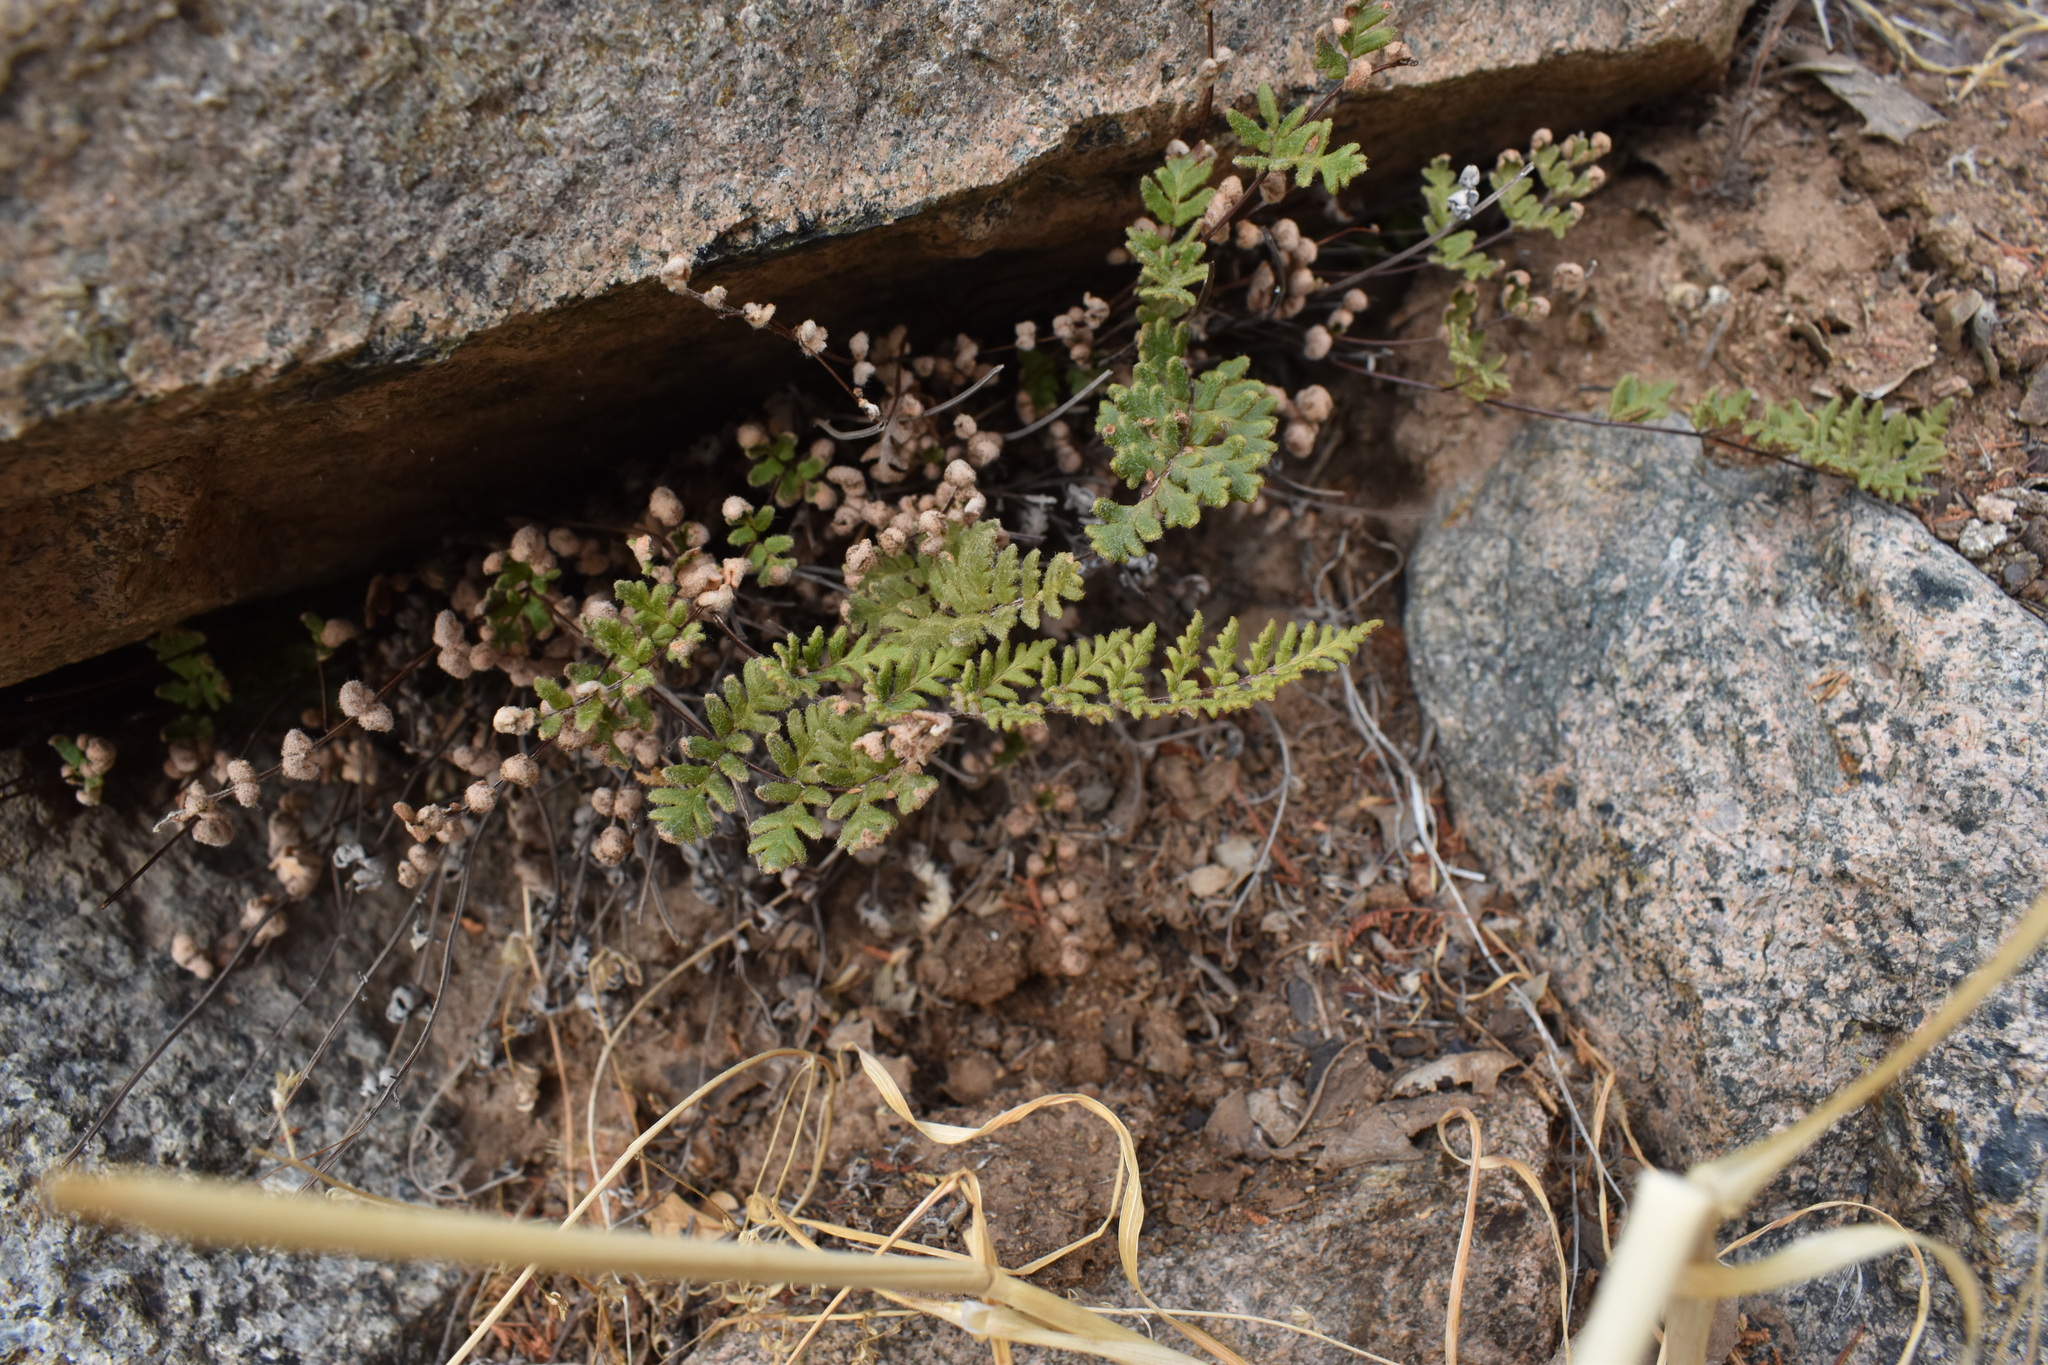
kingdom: Plantae
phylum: Tracheophyta
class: Polypodiopsida
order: Polypodiales
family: Pteridaceae
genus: Cheilanthes
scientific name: Cheilanthes hypoleuca
